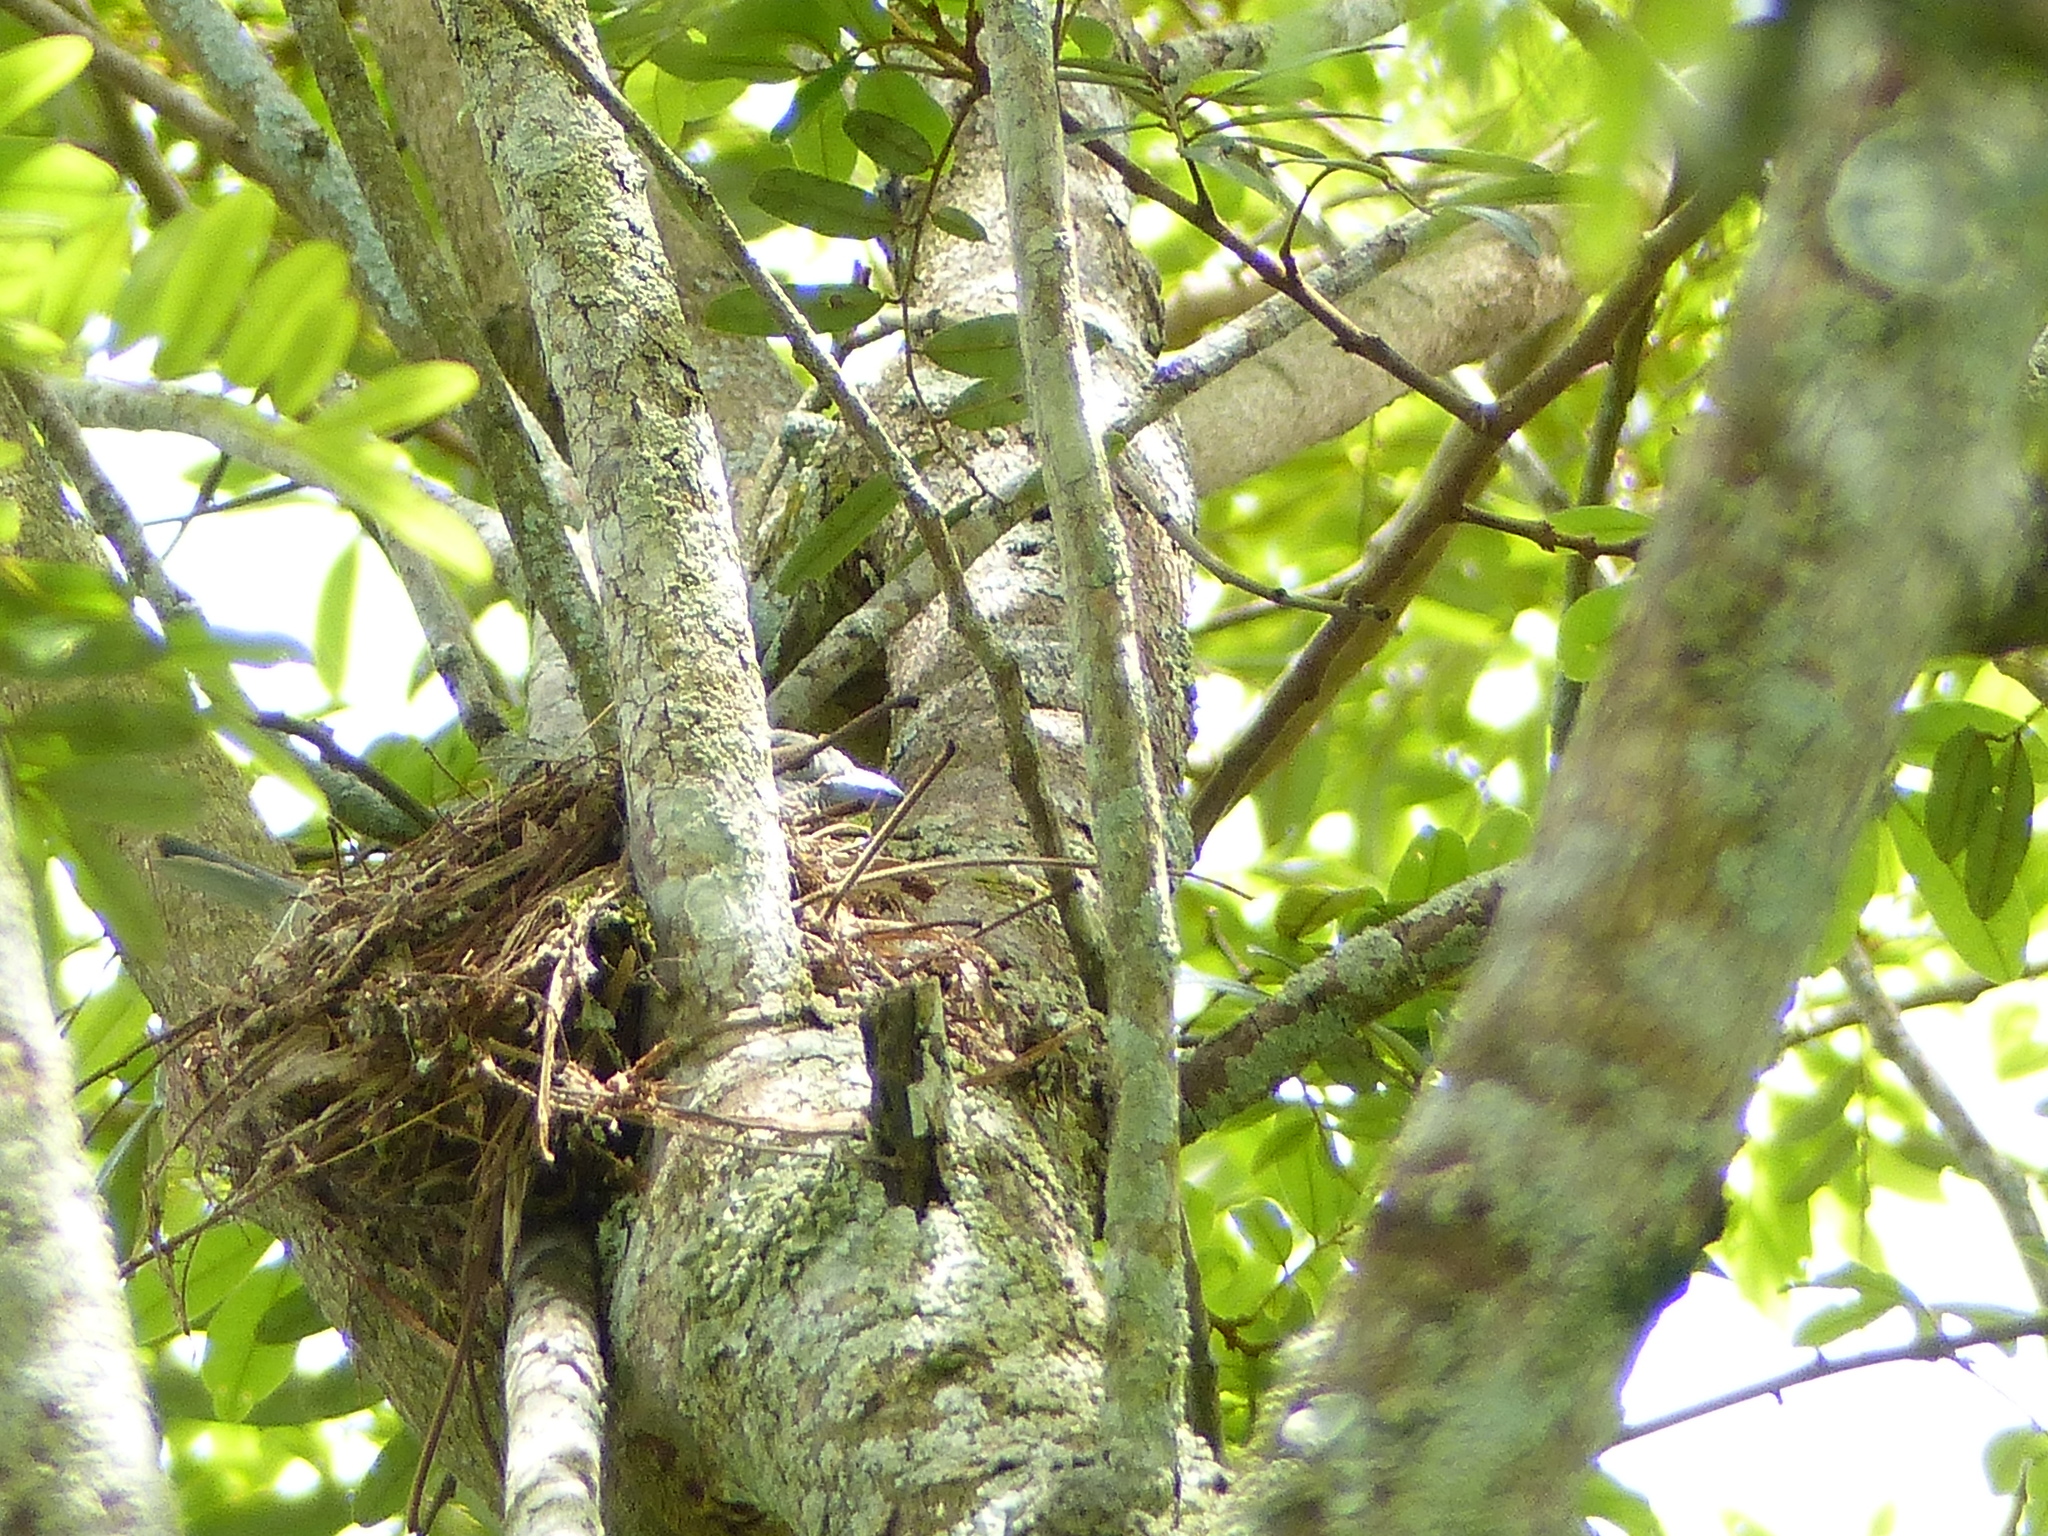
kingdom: Animalia
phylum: Chordata
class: Aves
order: Passeriformes
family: Thraupidae
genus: Thraupis
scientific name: Thraupis sayaca
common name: Sayaca tanager
